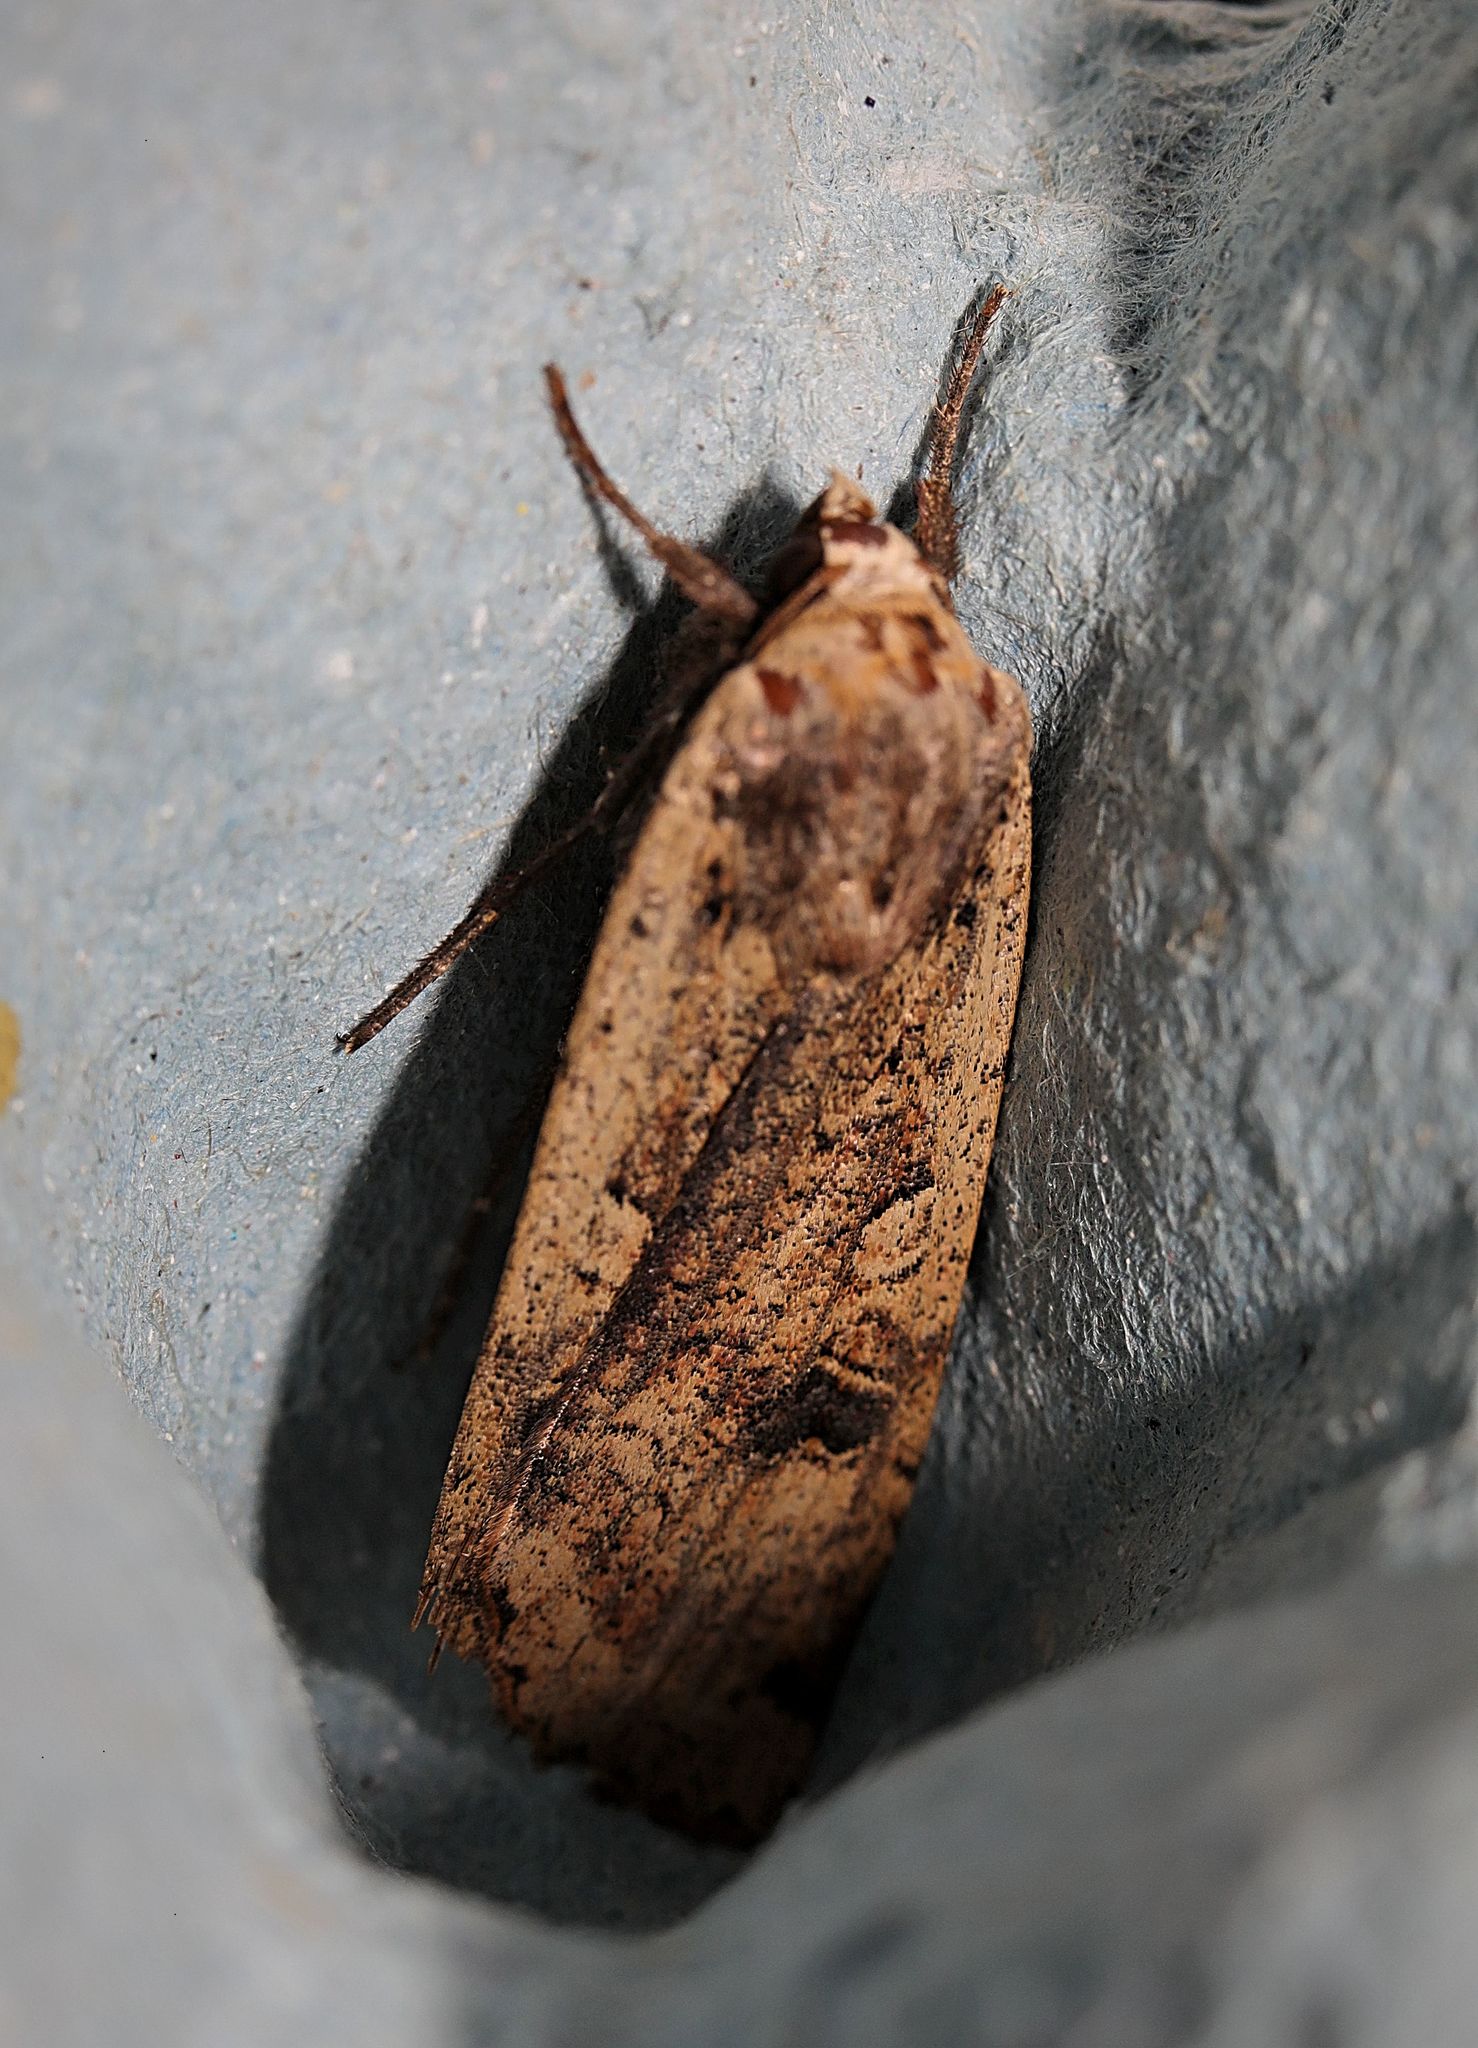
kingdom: Animalia
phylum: Arthropoda
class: Insecta
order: Lepidoptera
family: Noctuidae
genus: Noctua
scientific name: Noctua pronuba
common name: Large yellow underwing
